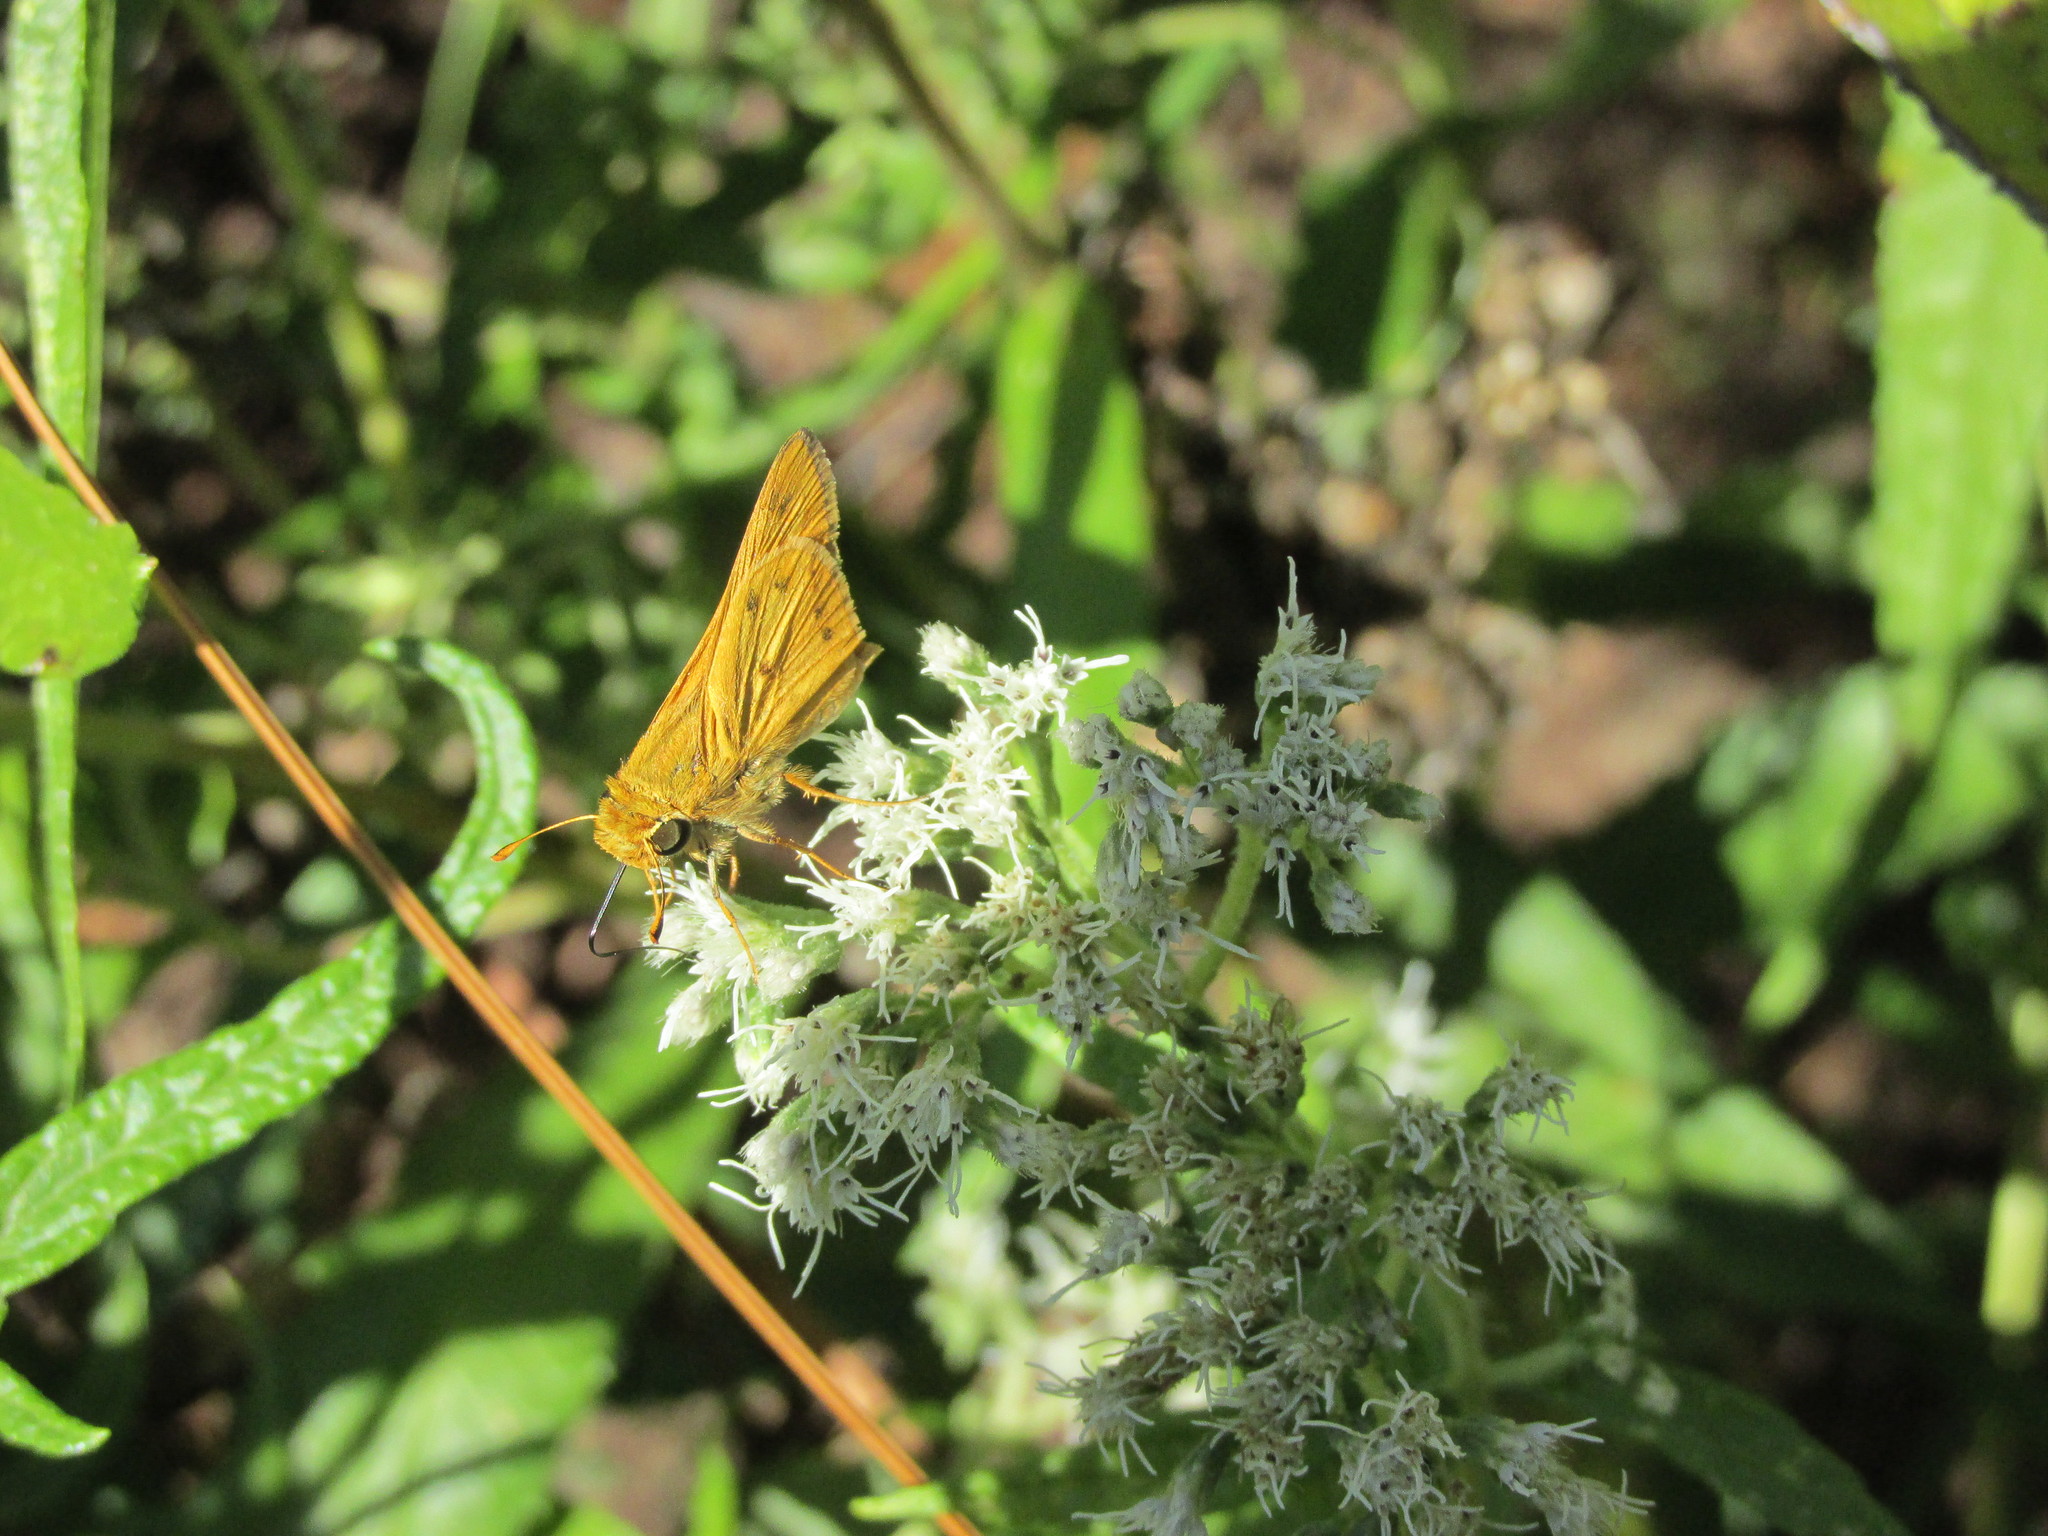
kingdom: Animalia
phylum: Arthropoda
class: Insecta
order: Lepidoptera
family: Hesperiidae
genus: Hylephila
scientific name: Hylephila phyleus
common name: Fiery skipper
